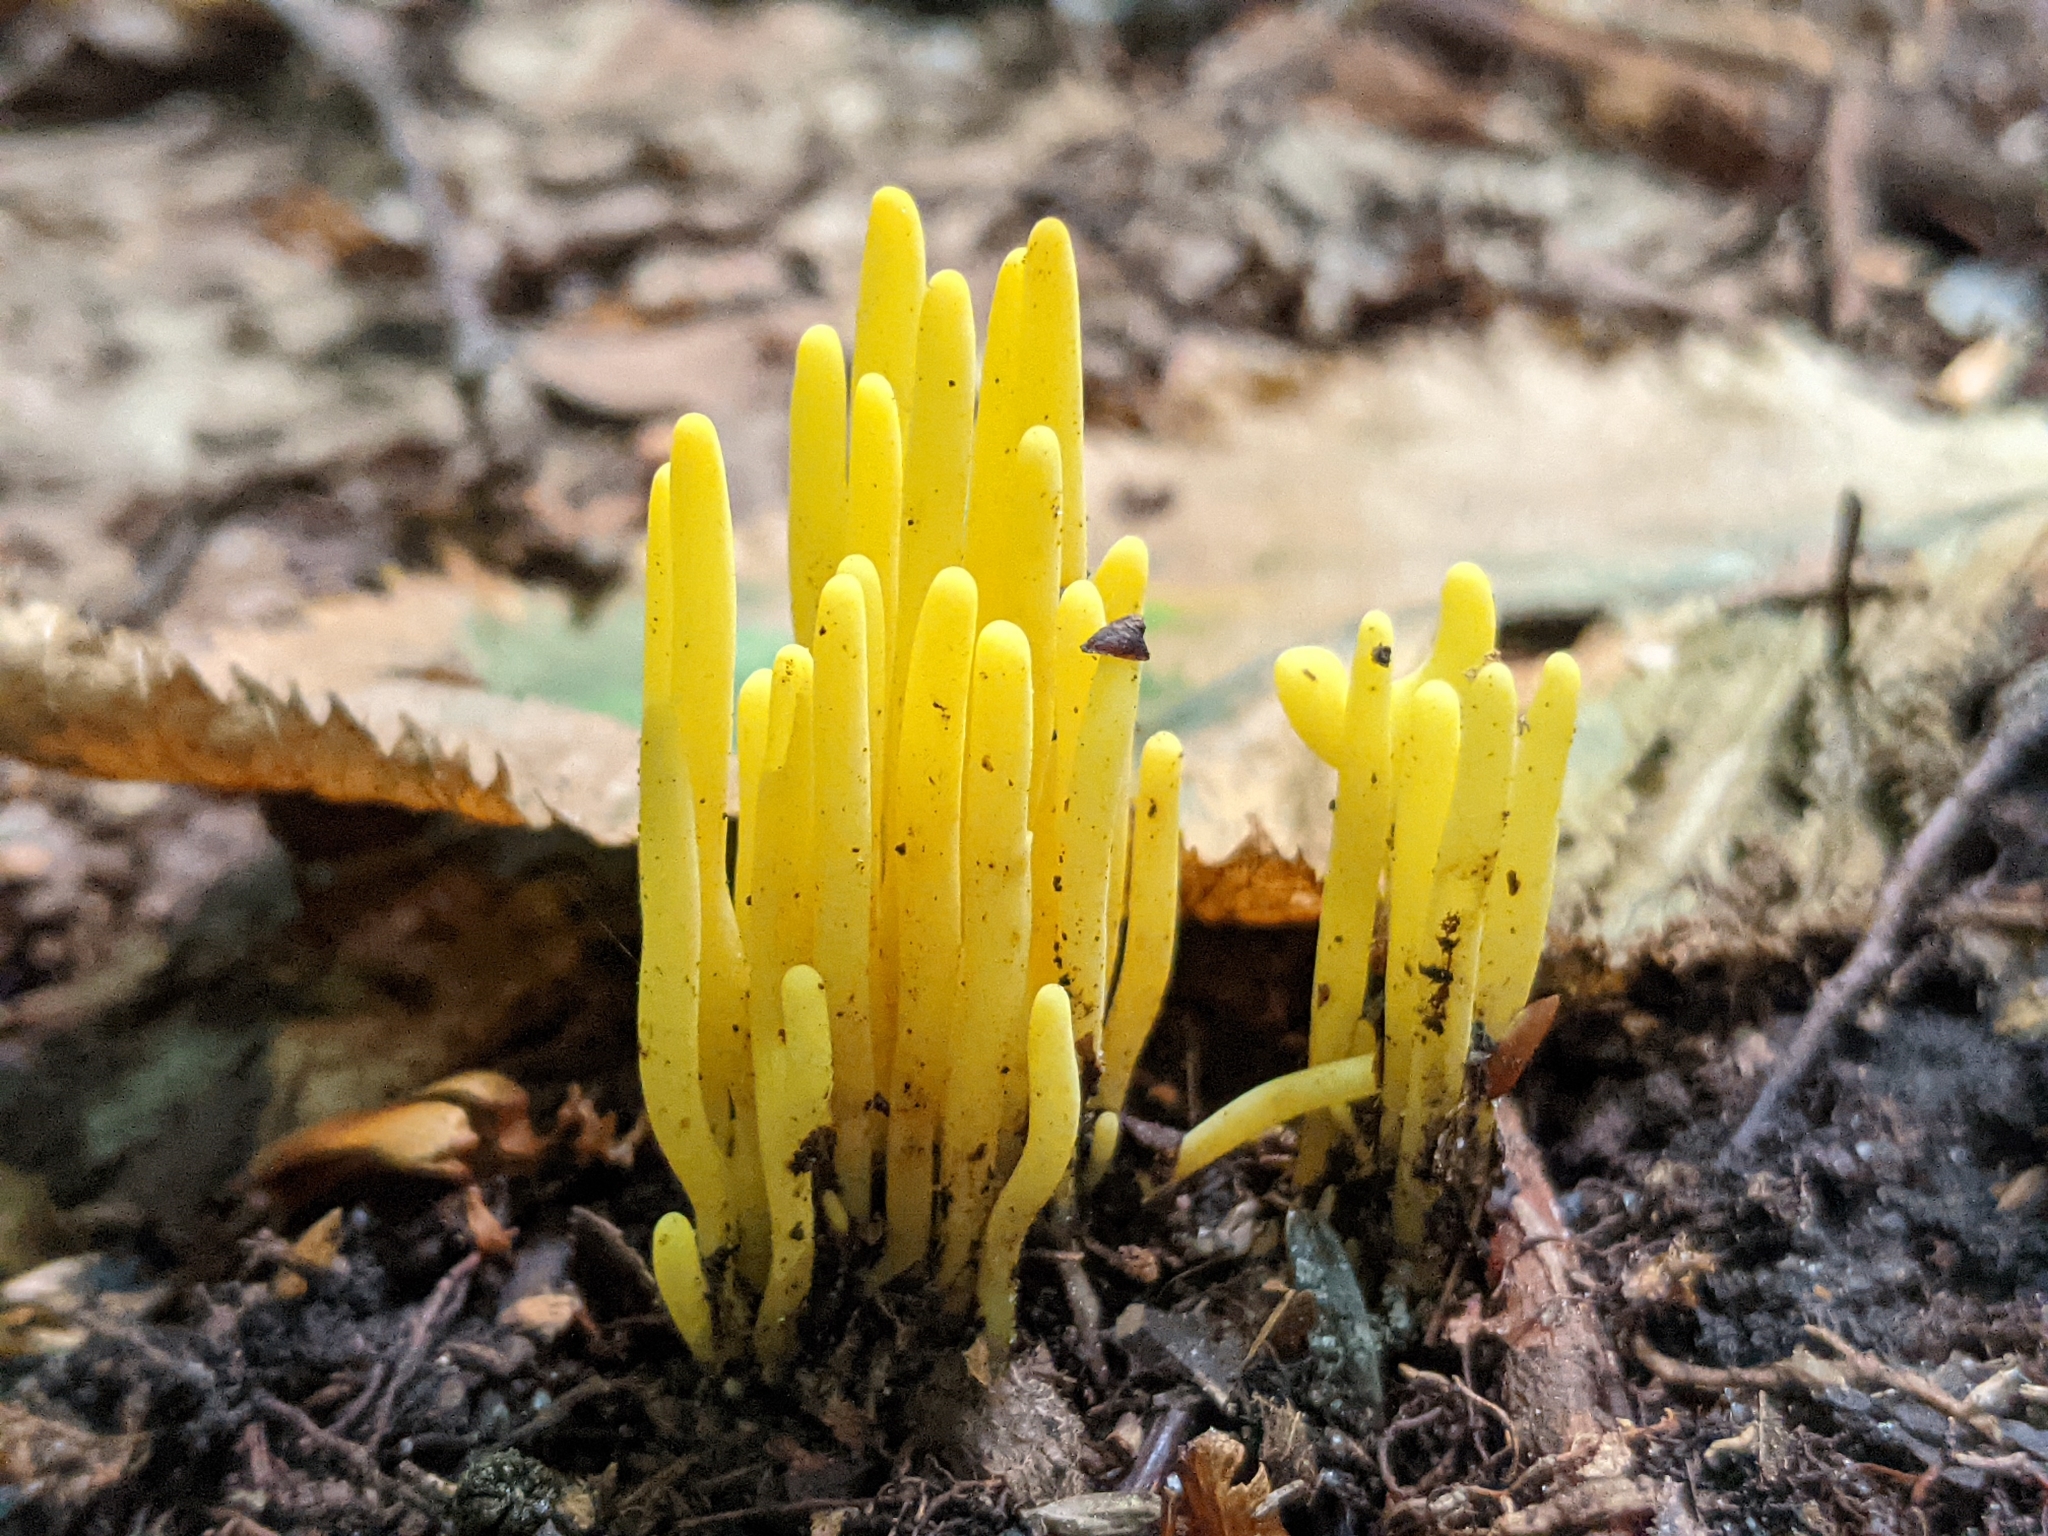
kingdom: Fungi
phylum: Basidiomycota
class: Agaricomycetes
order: Agaricales
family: Clavariaceae
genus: Clavulinopsis
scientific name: Clavulinopsis fusiformis
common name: Golden spindles
